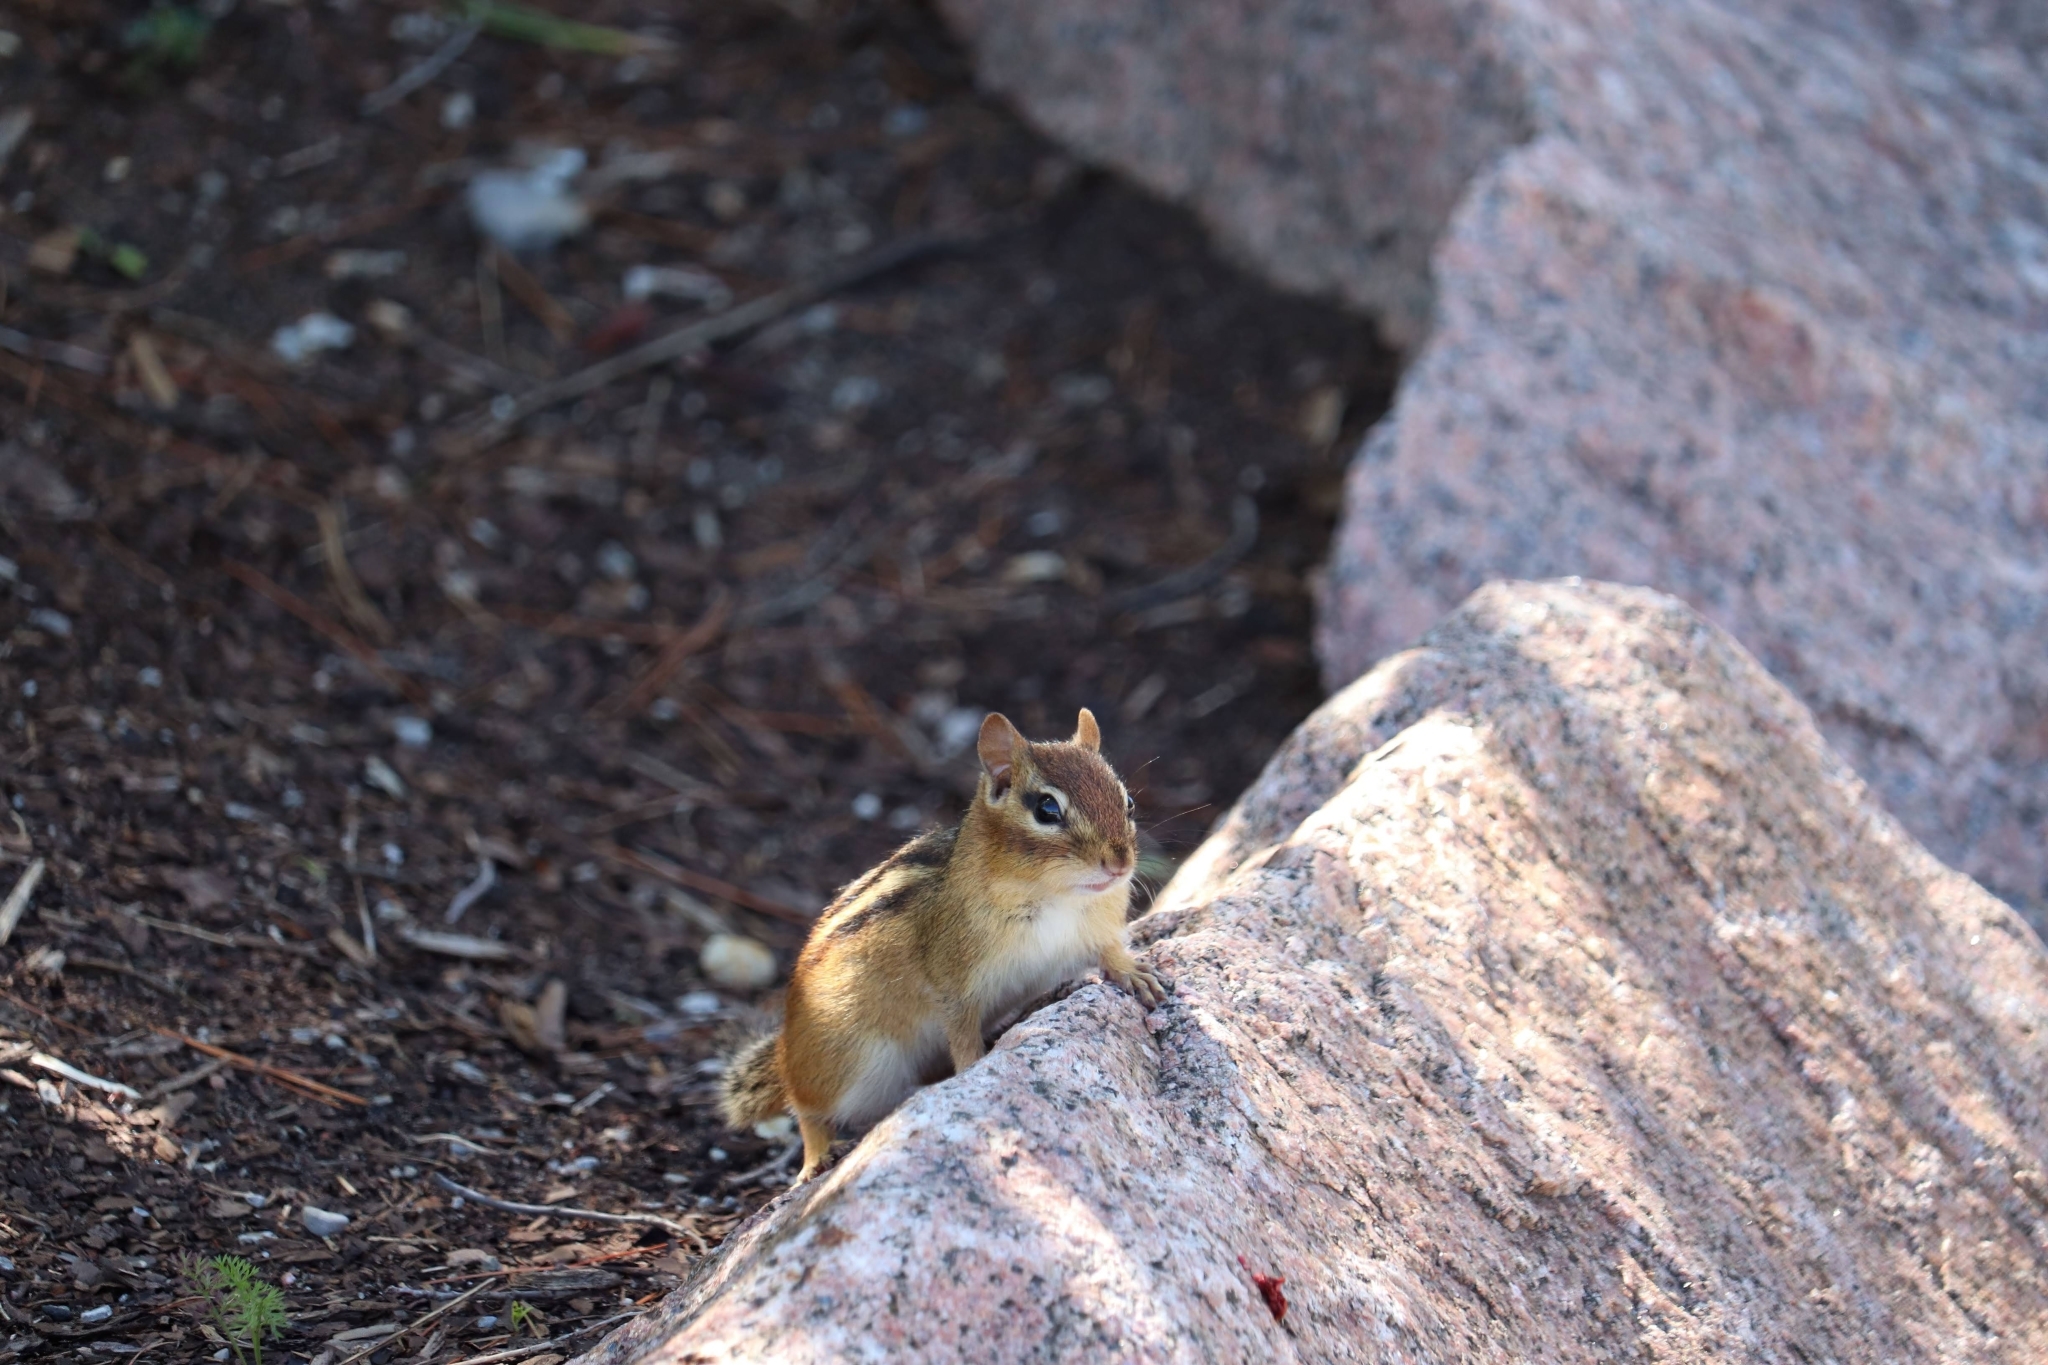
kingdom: Animalia
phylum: Chordata
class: Mammalia
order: Rodentia
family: Sciuridae
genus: Tamias
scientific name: Tamias striatus
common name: Eastern chipmunk
